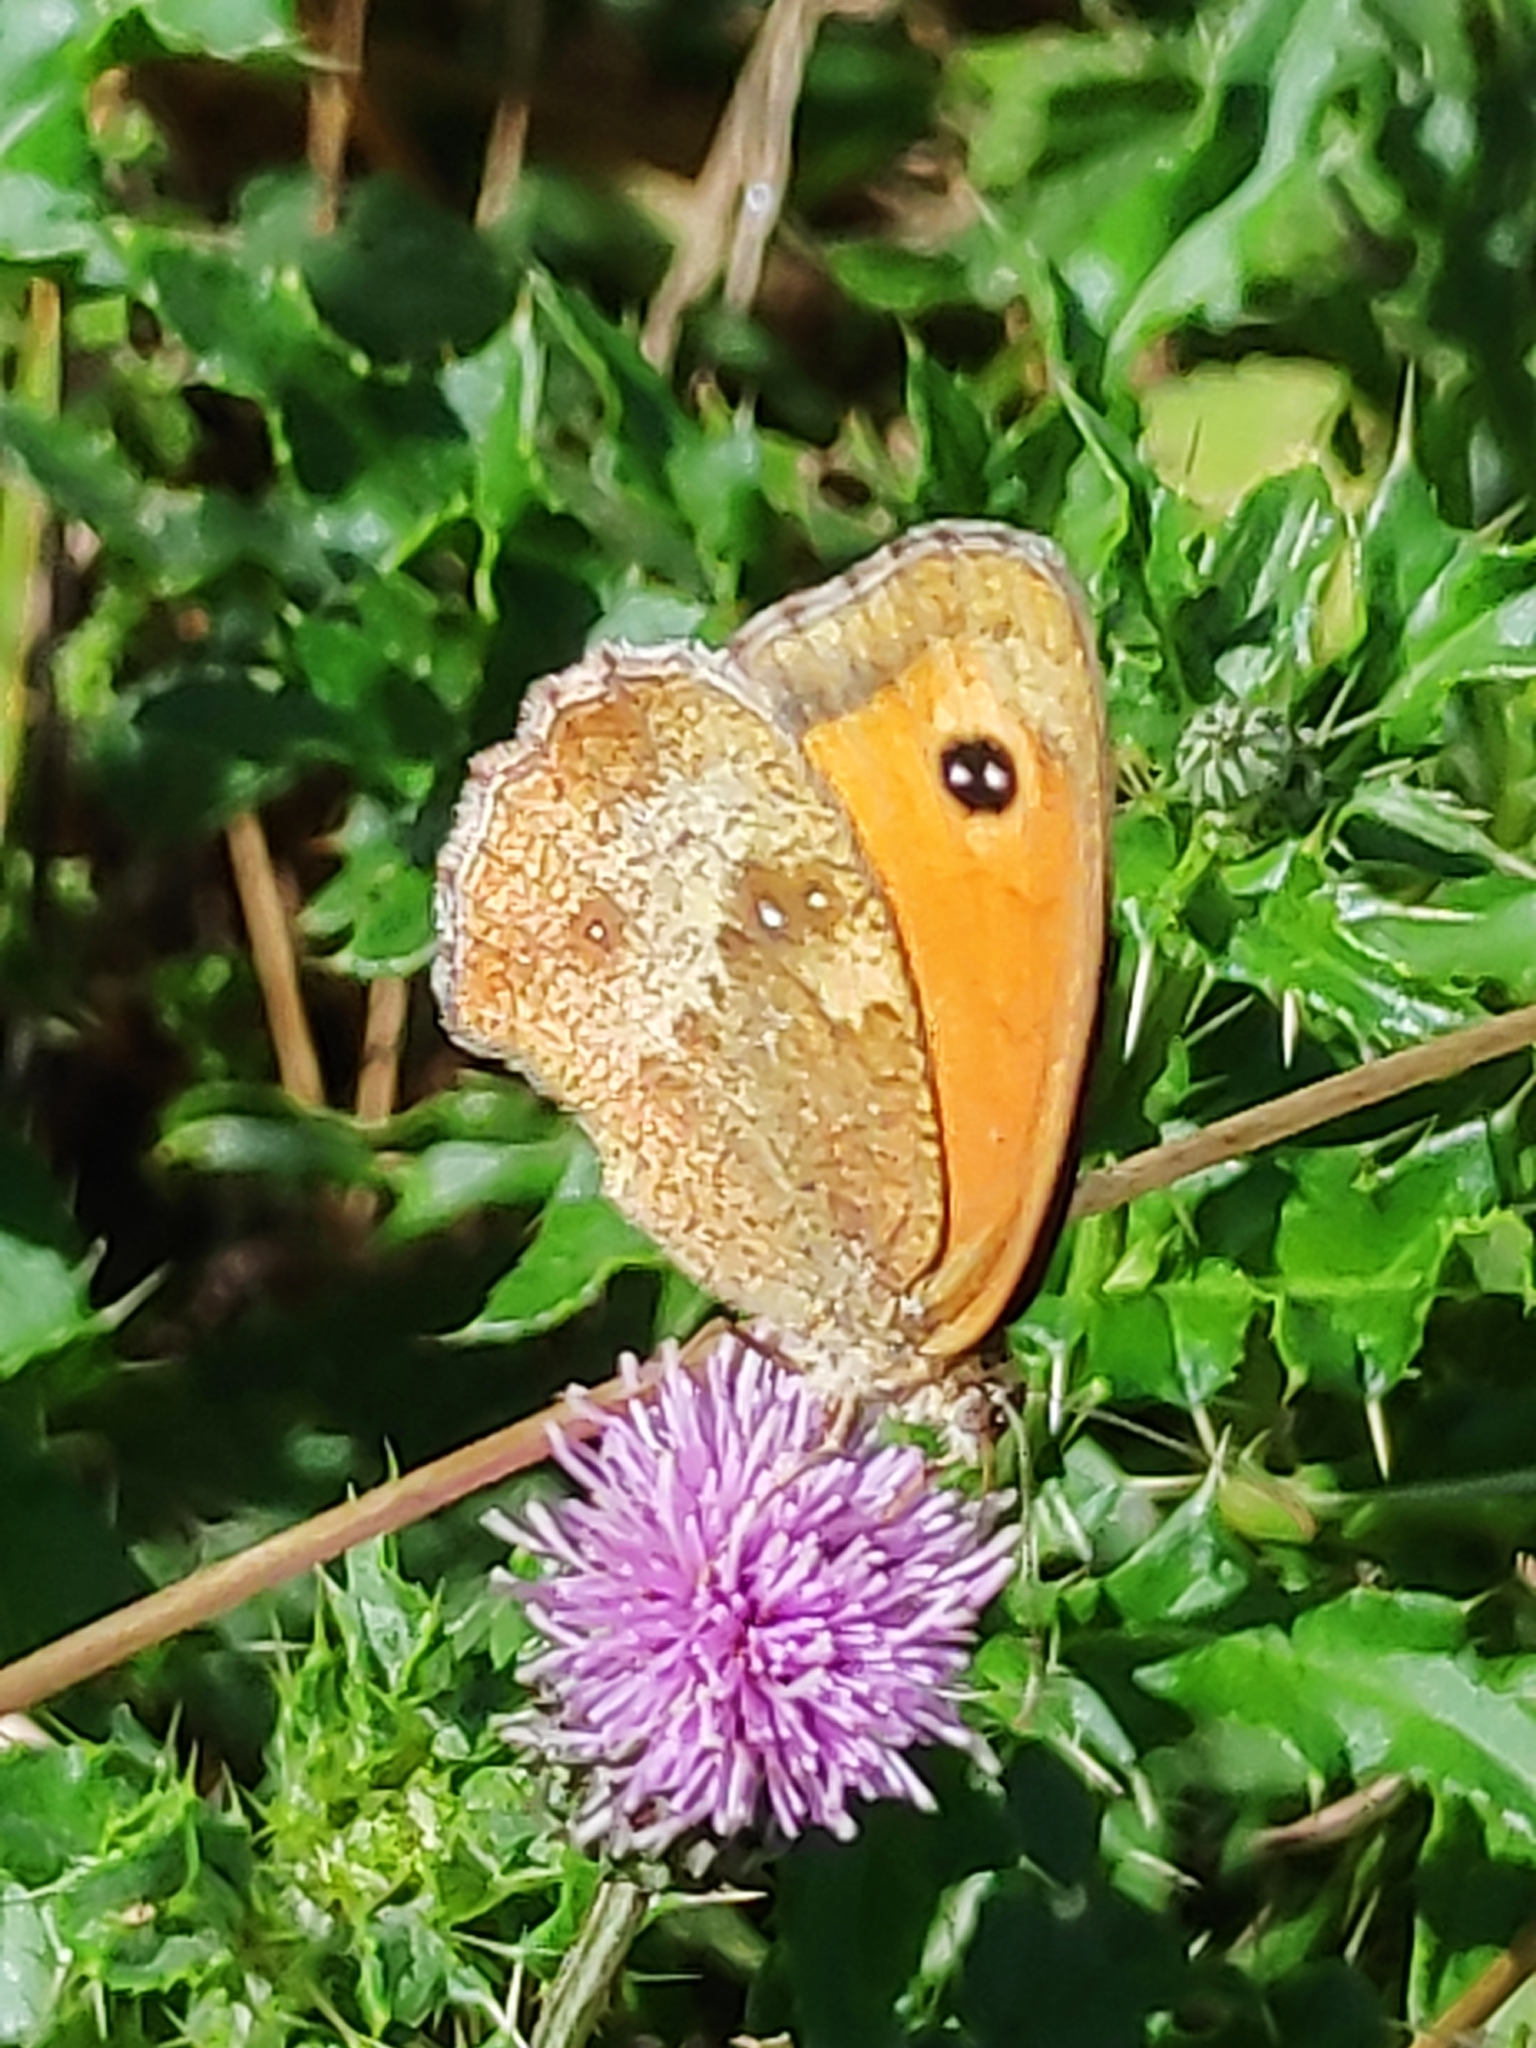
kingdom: Animalia
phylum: Arthropoda
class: Insecta
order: Lepidoptera
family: Nymphalidae
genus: Pyronia
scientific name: Pyronia tithonus
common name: Gatekeeper
